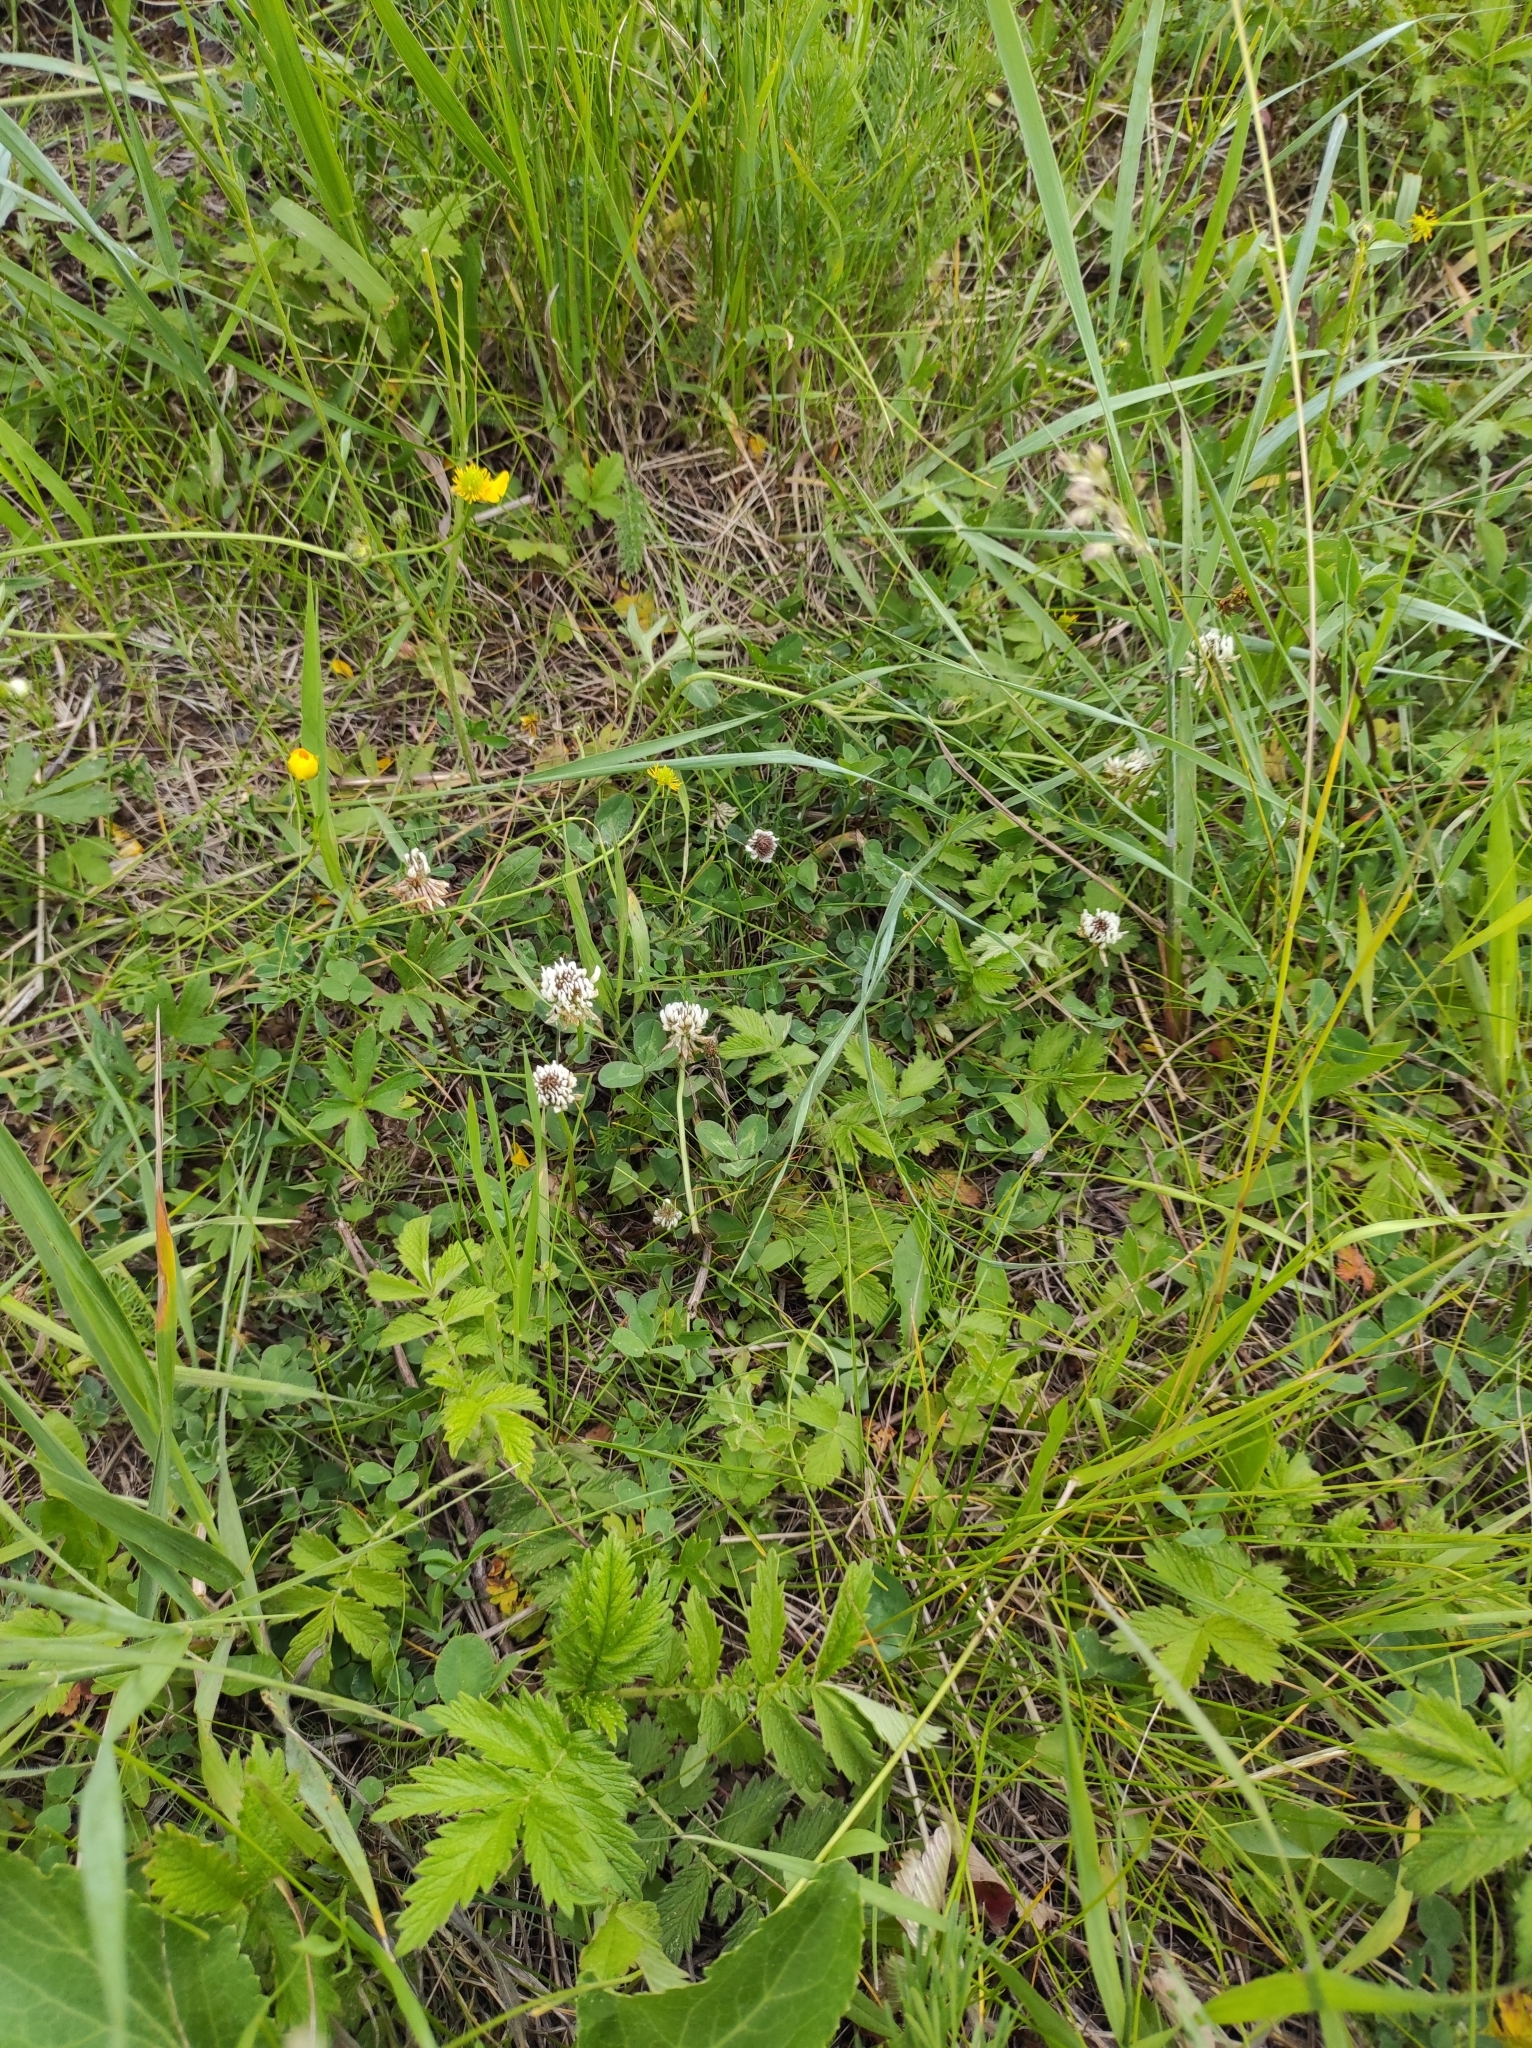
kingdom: Plantae
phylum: Tracheophyta
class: Magnoliopsida
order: Fabales
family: Fabaceae
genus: Trifolium
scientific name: Trifolium repens
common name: White clover
